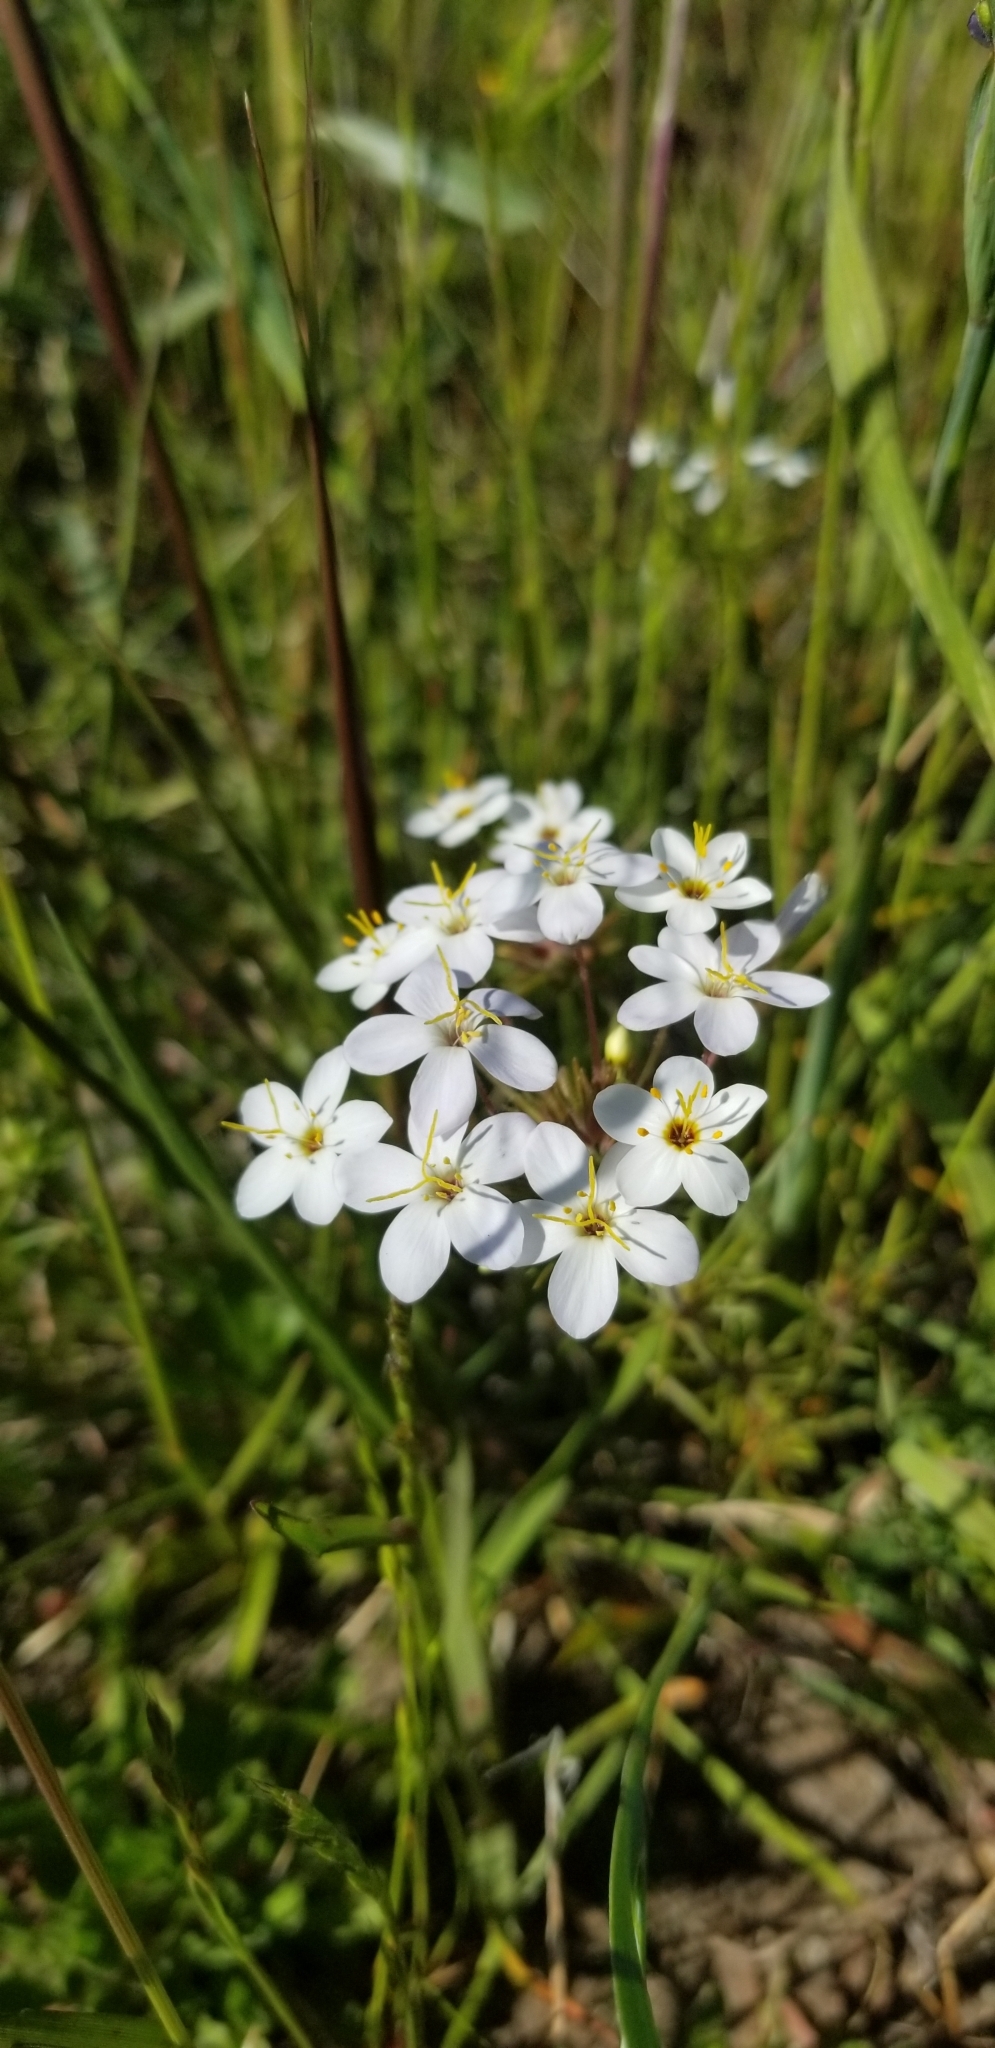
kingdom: Plantae
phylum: Tracheophyta
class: Magnoliopsida
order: Ericales
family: Polemoniaceae
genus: Leptosiphon
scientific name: Leptosiphon parviflorus
